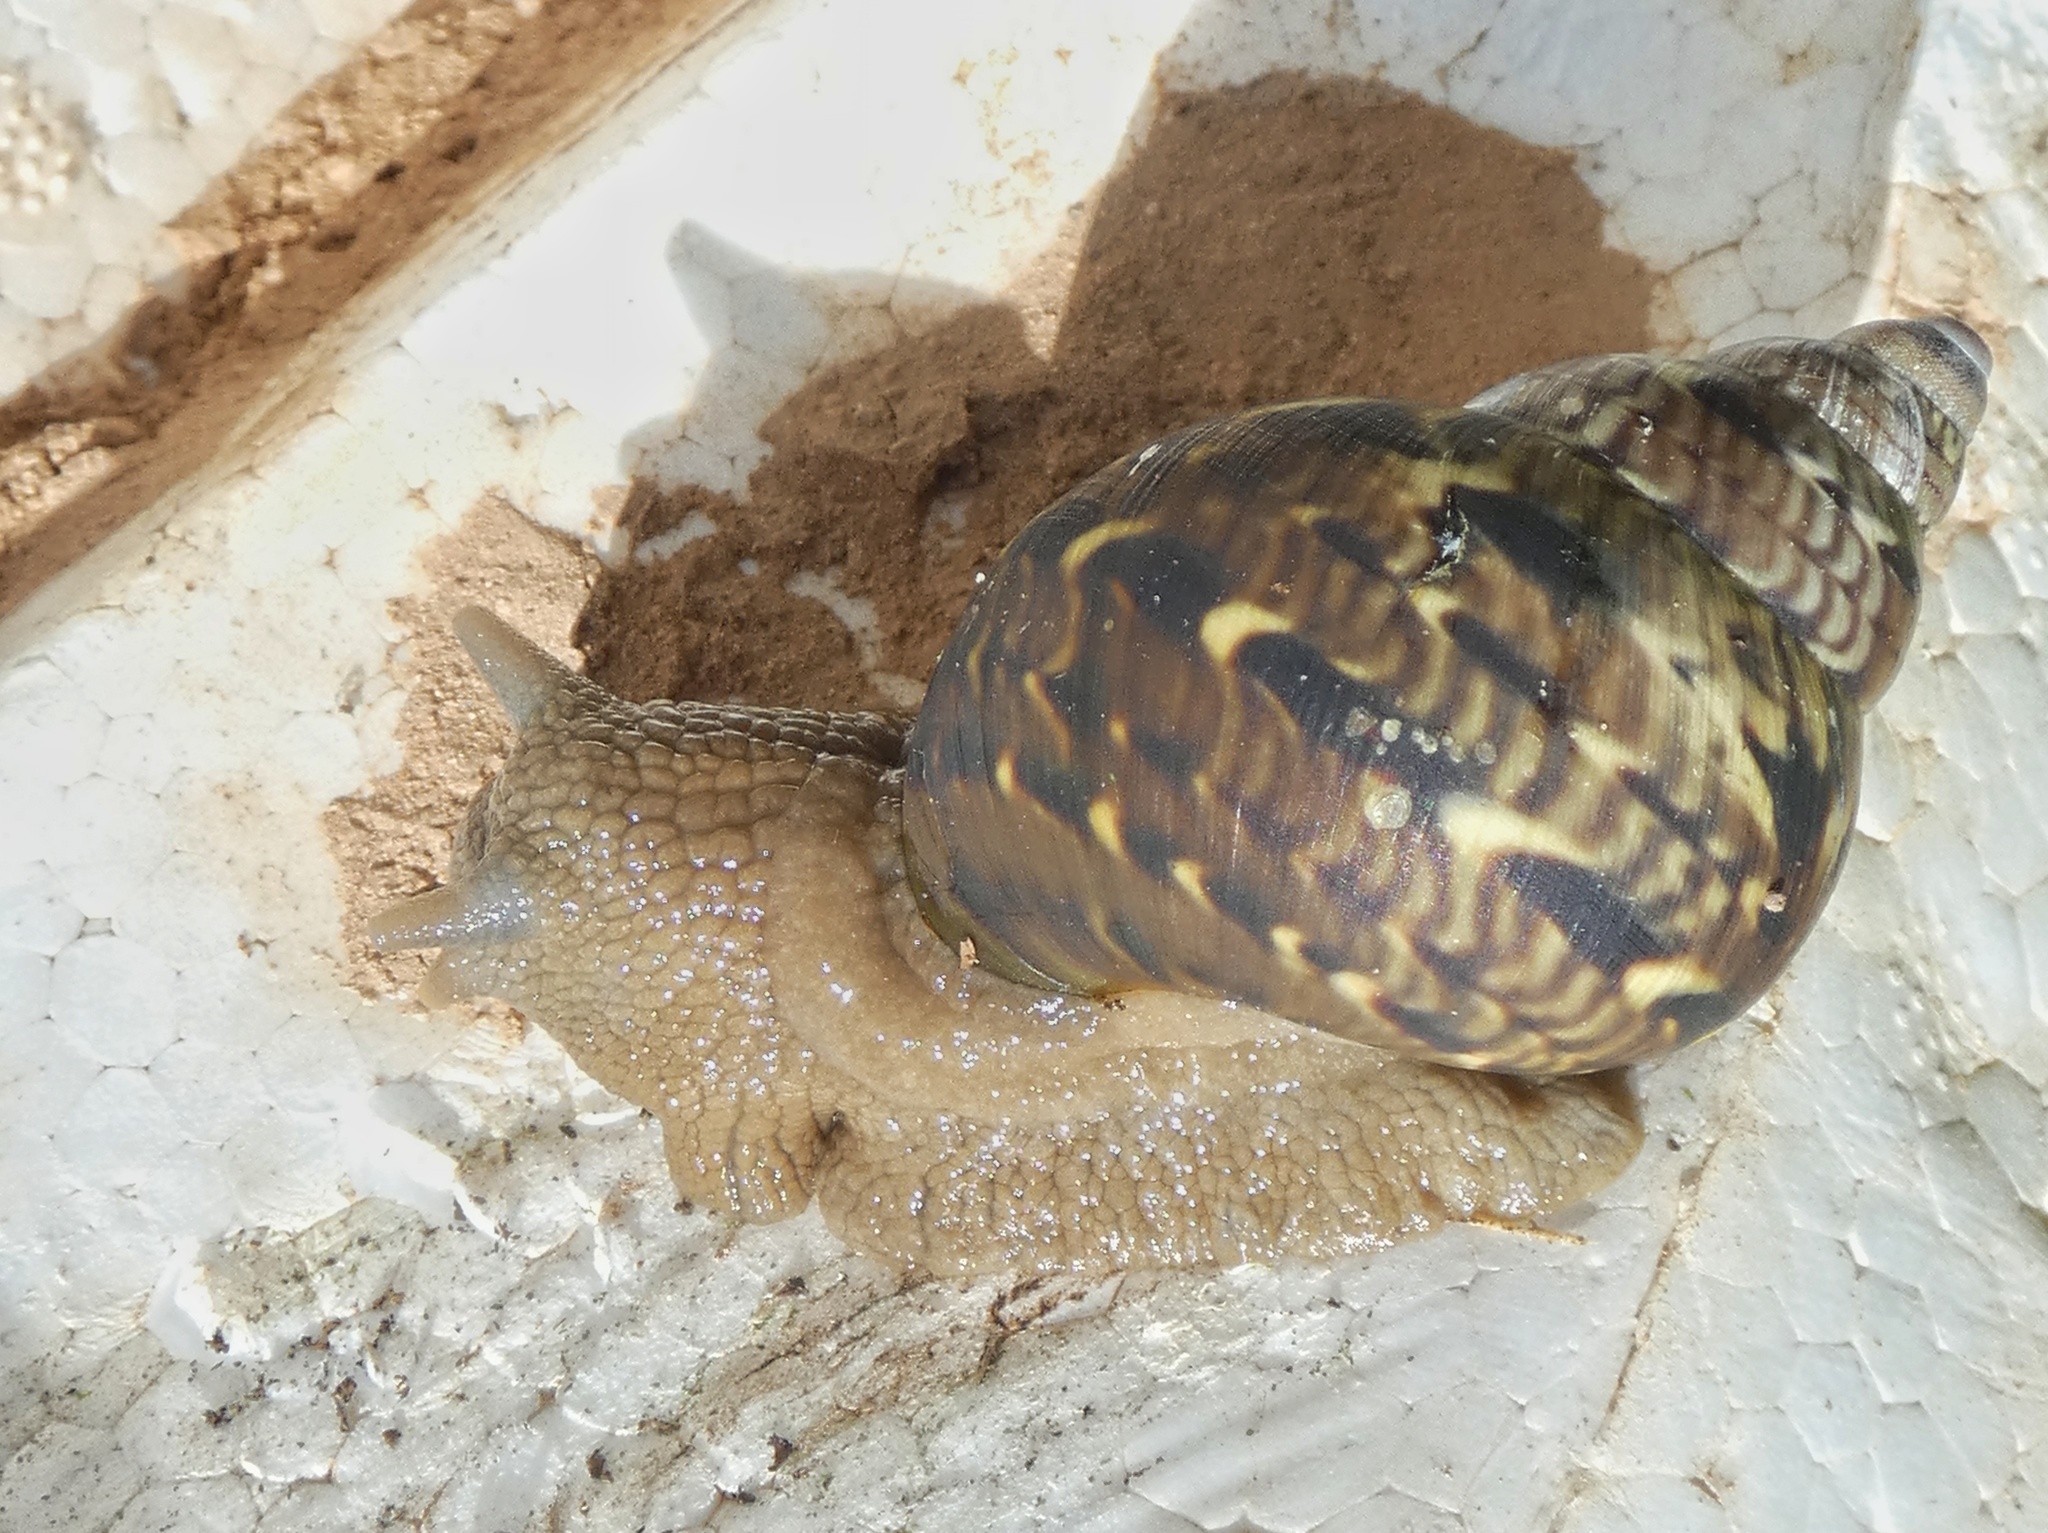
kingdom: Animalia
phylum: Mollusca
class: Gastropoda
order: Stylommatophora
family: Orthalicidae
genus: Sultana
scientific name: Sultana sultana
